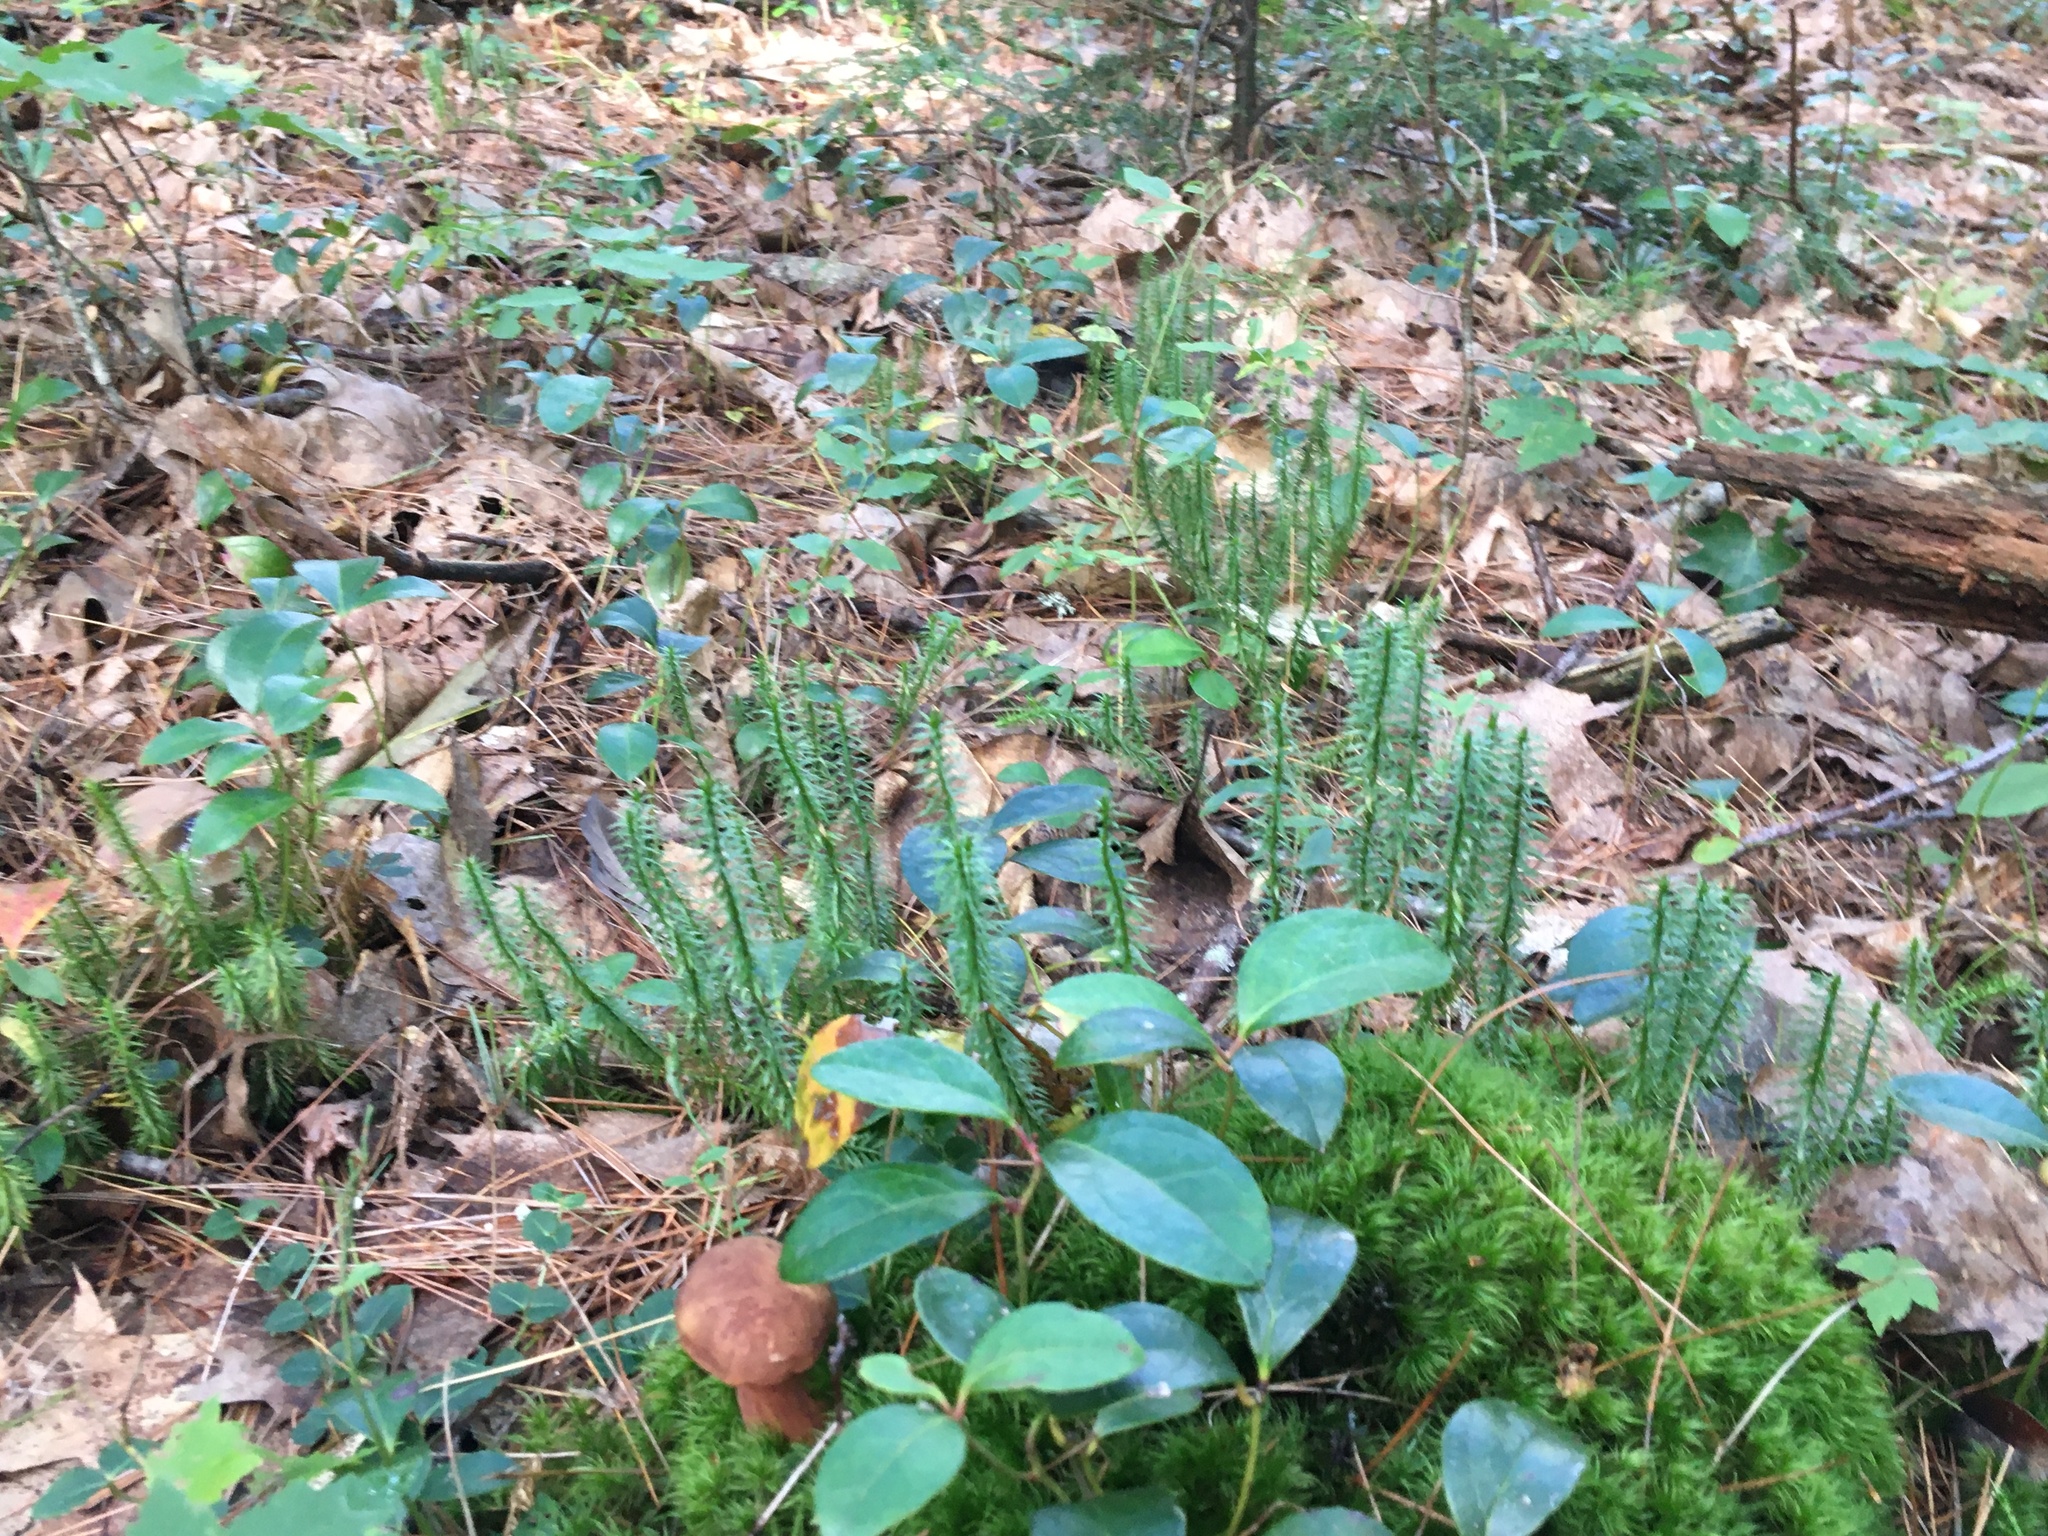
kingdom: Plantae
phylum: Tracheophyta
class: Lycopodiopsida
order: Lycopodiales
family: Lycopodiaceae
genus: Spinulum
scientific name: Spinulum annotinum
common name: Interrupted club-moss
